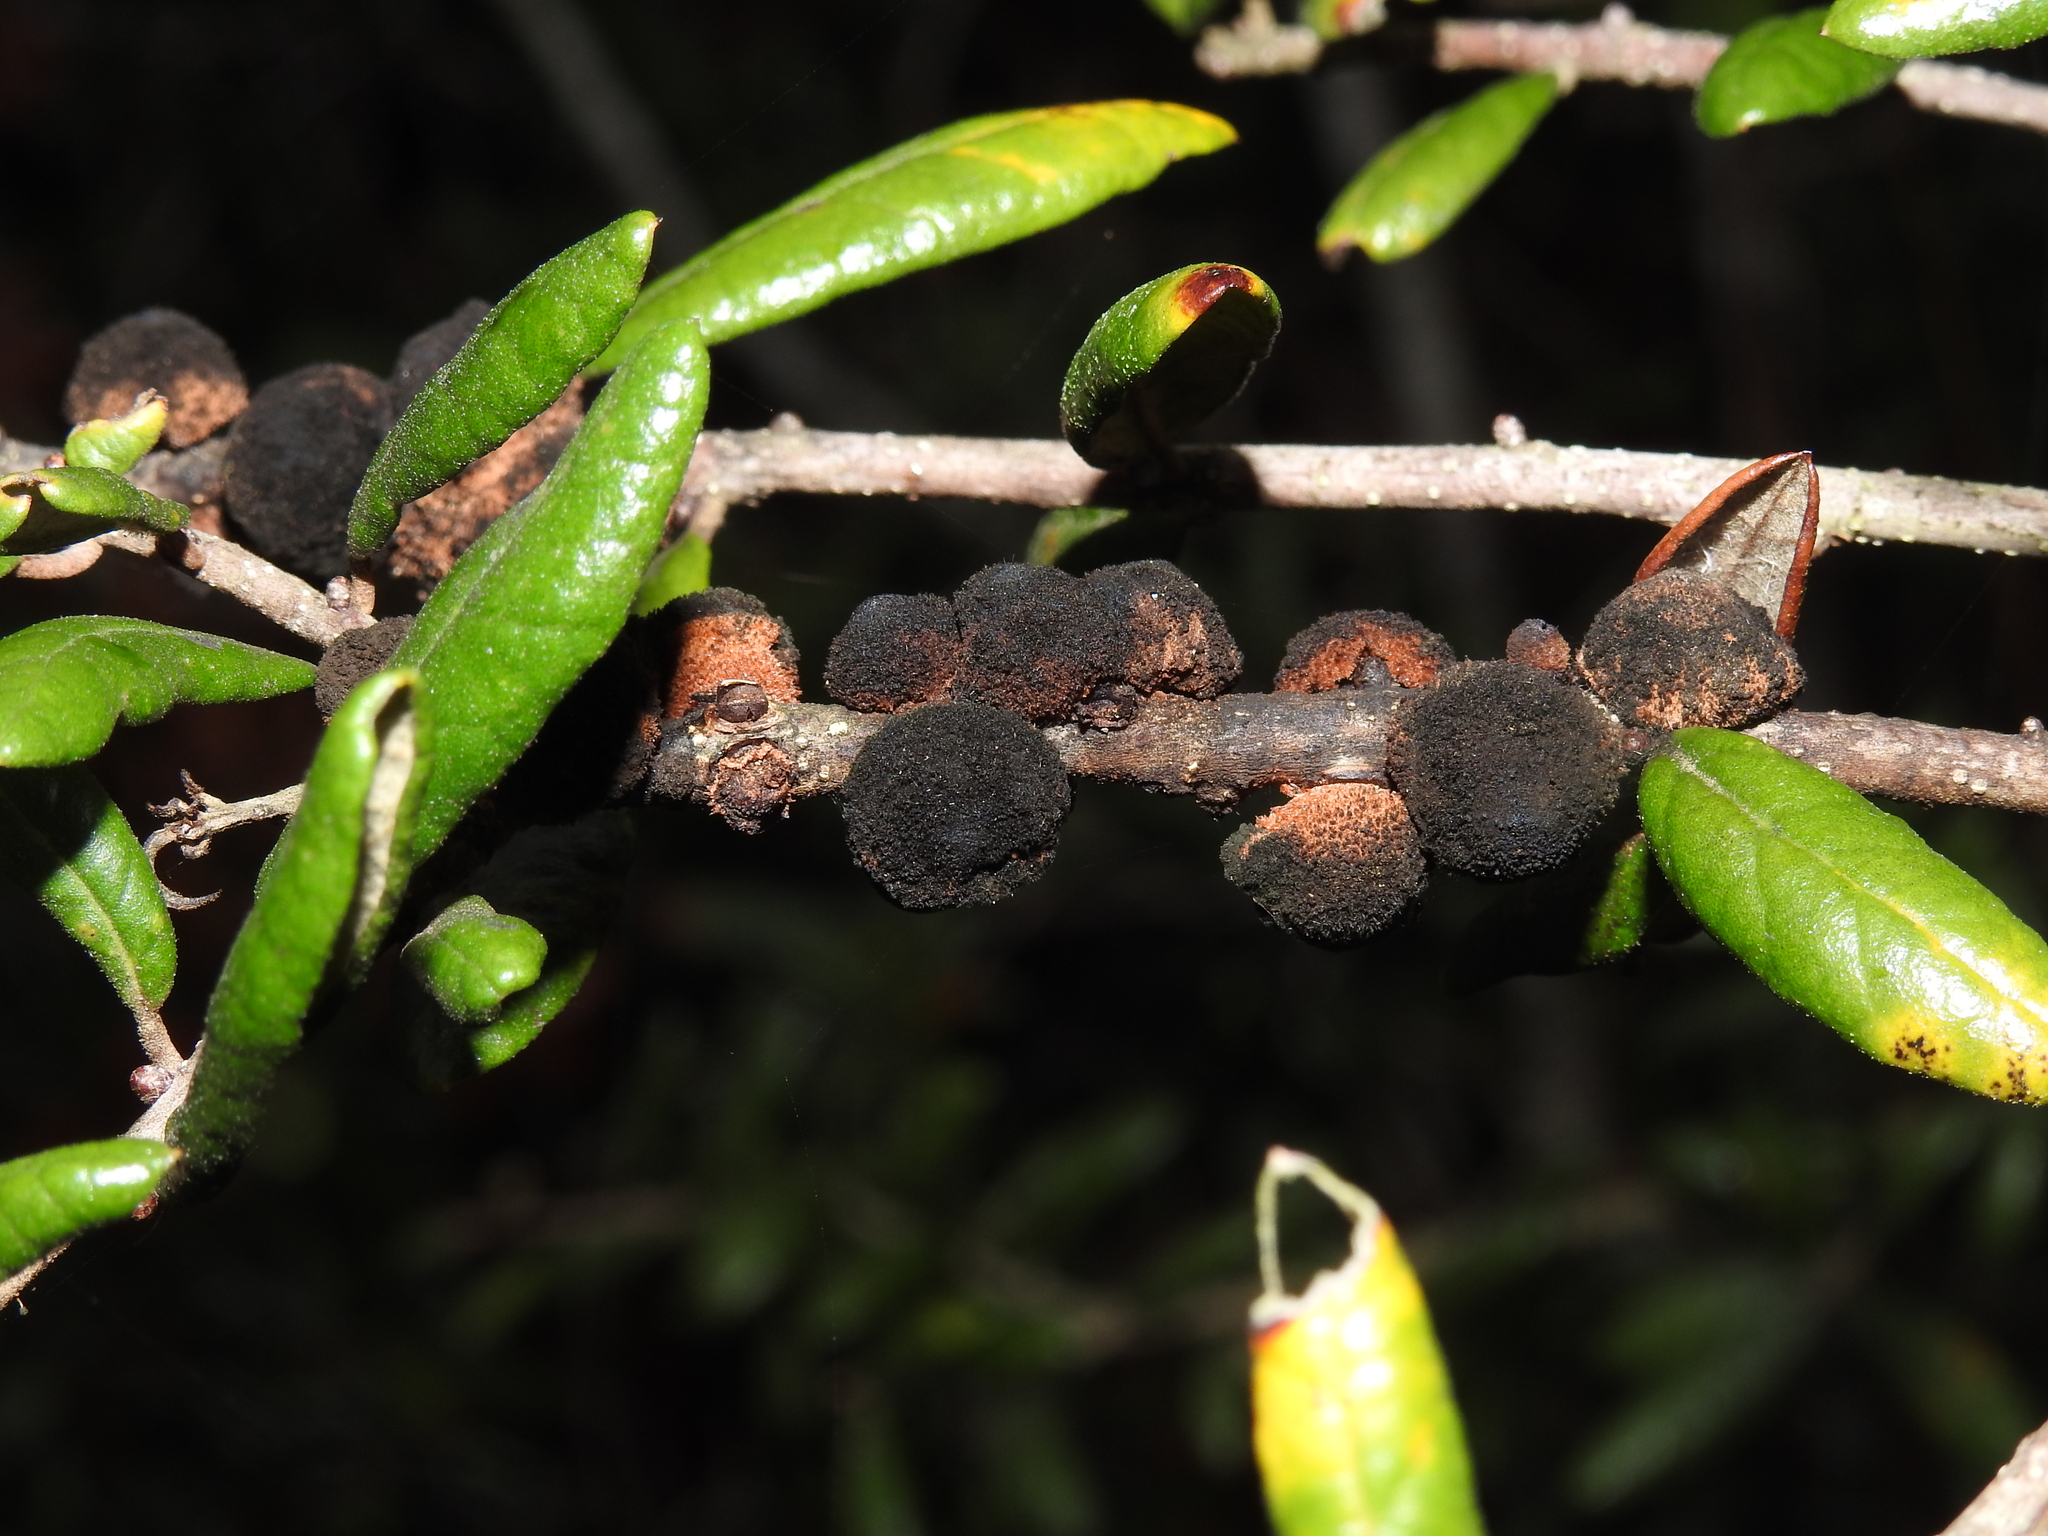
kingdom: Animalia
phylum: Arthropoda
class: Insecta
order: Hymenoptera
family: Cynipidae
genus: Disholcaspis
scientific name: Disholcaspis
